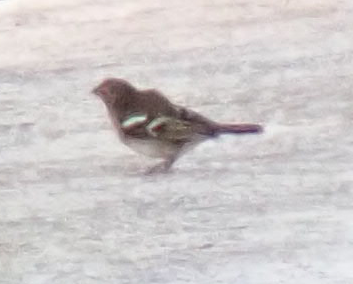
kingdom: Animalia
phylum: Chordata
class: Aves
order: Passeriformes
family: Fringillidae
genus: Fringilla
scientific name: Fringilla canariensis
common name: Canary islands chaffinch
